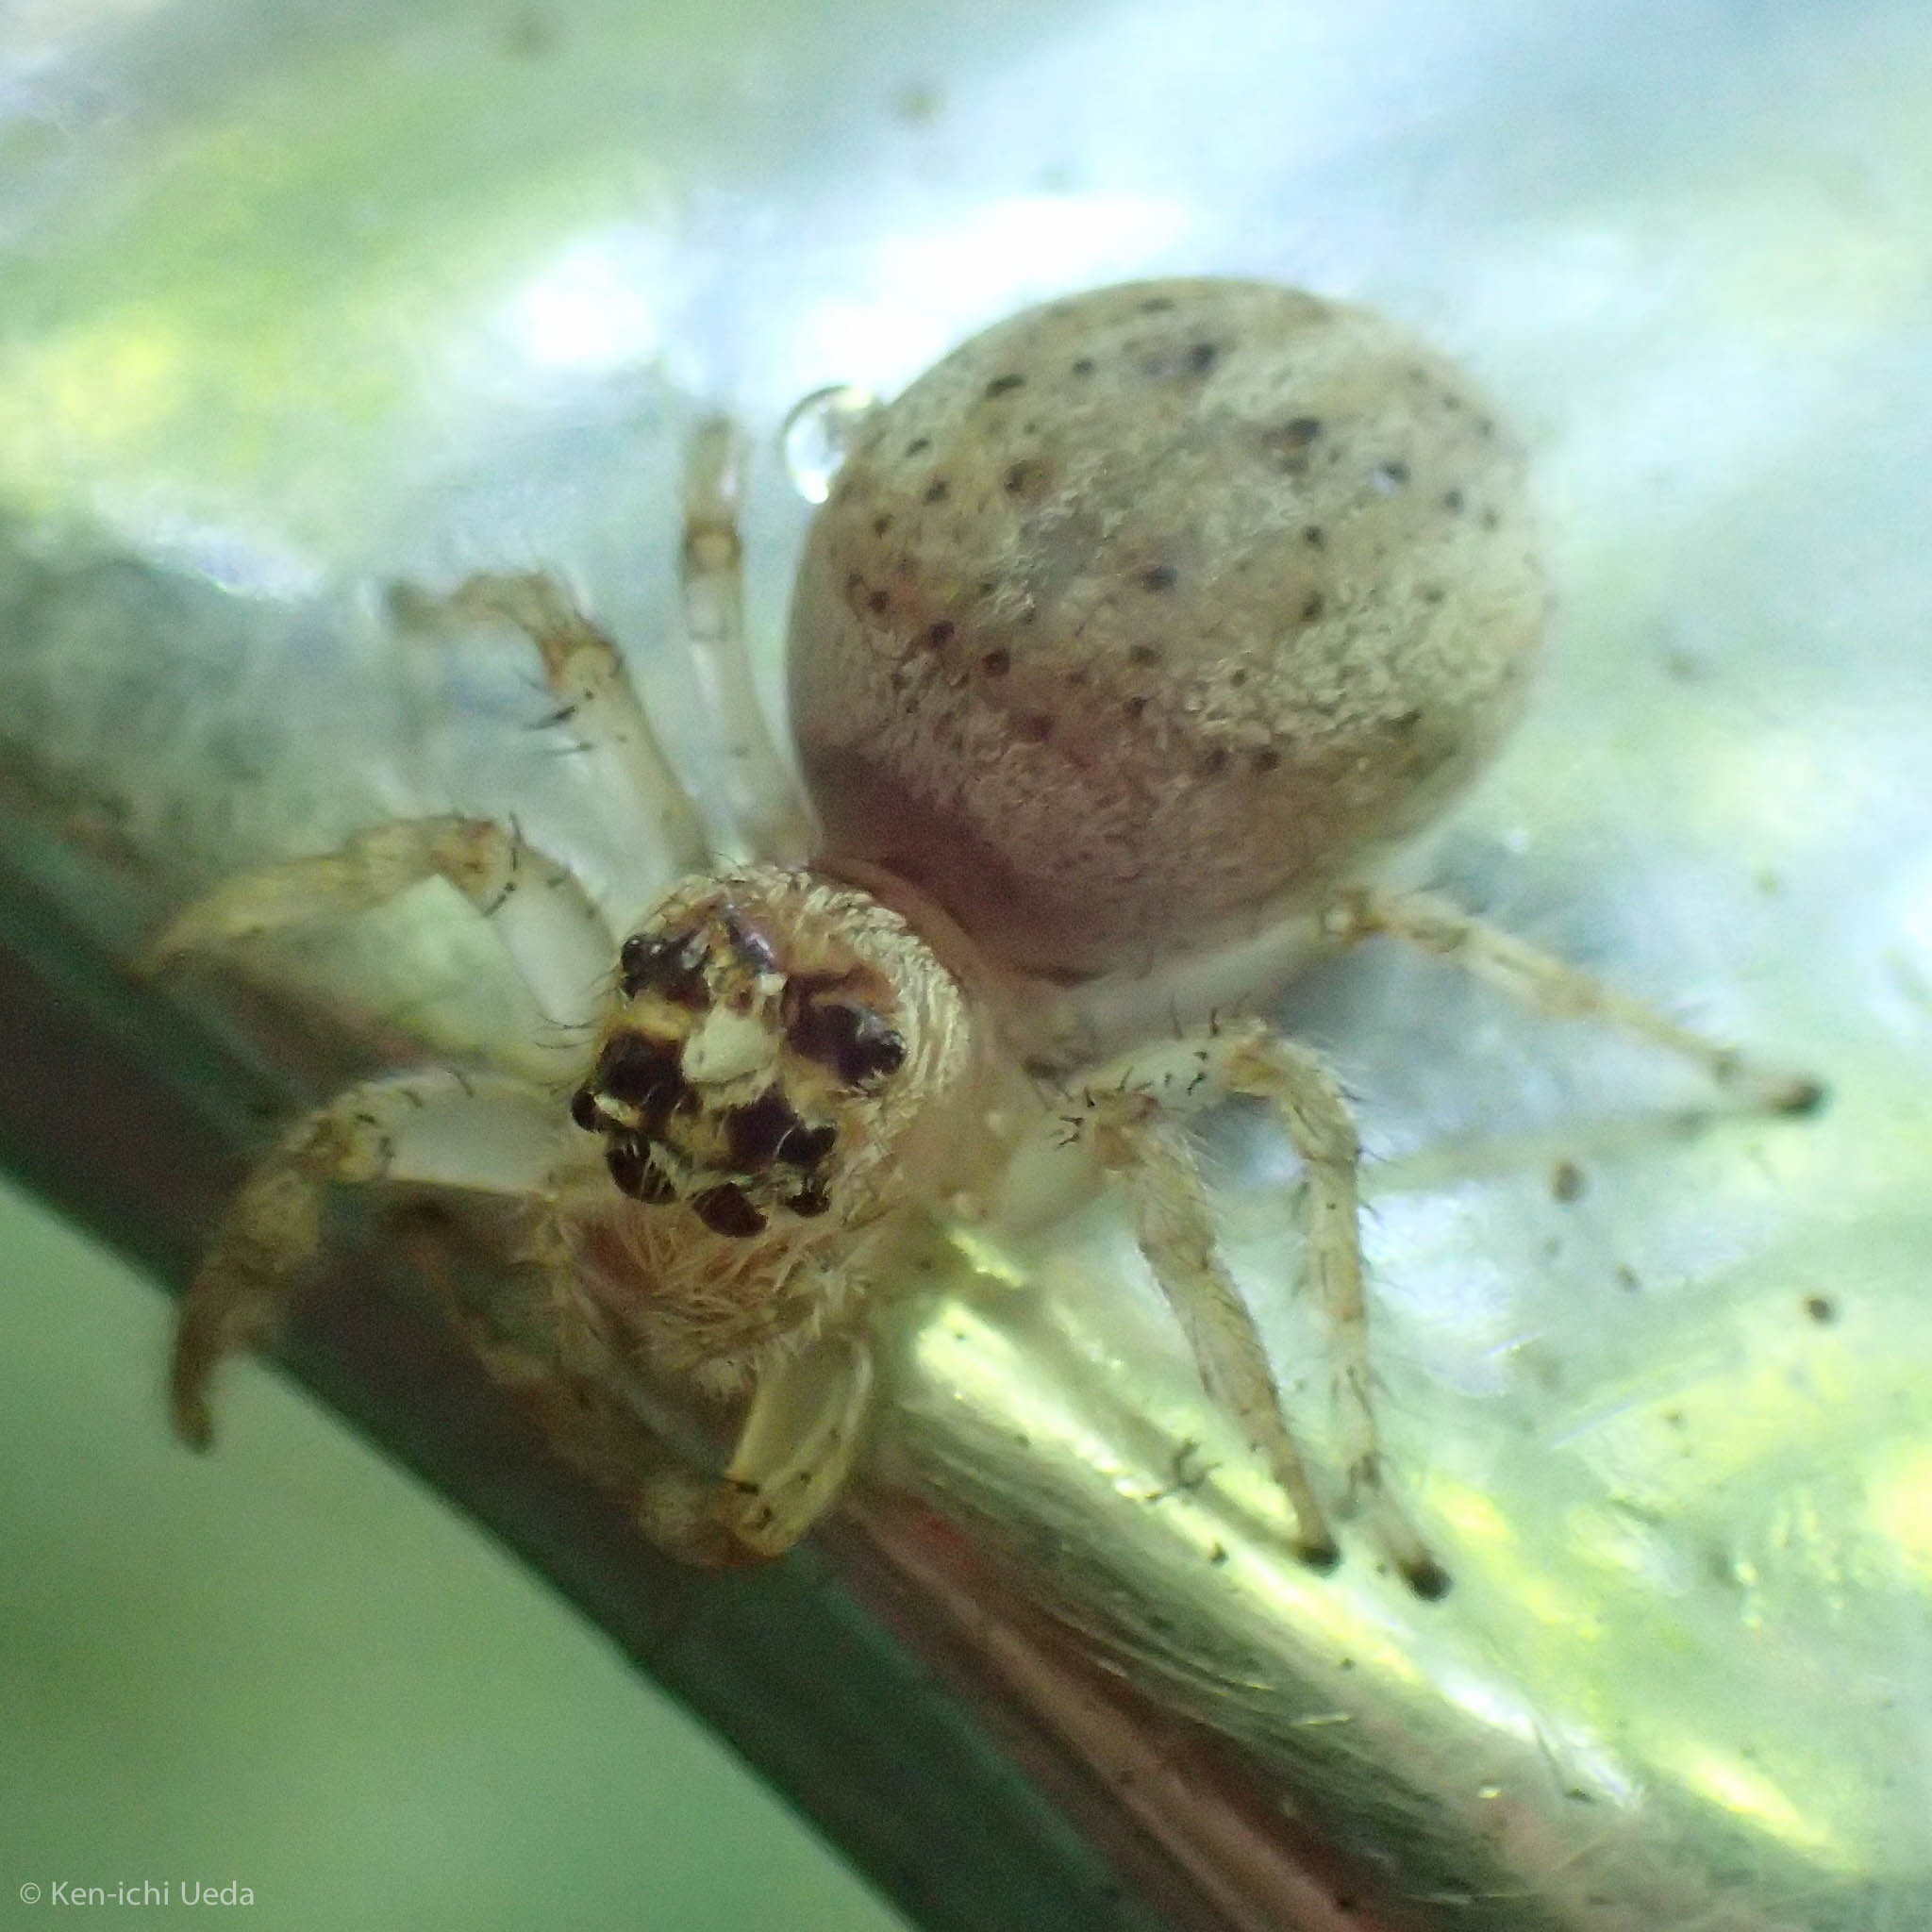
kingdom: Animalia
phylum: Arthropoda
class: Arachnida
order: Araneae
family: Salticidae
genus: Colonus
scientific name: Colonus hesperus
